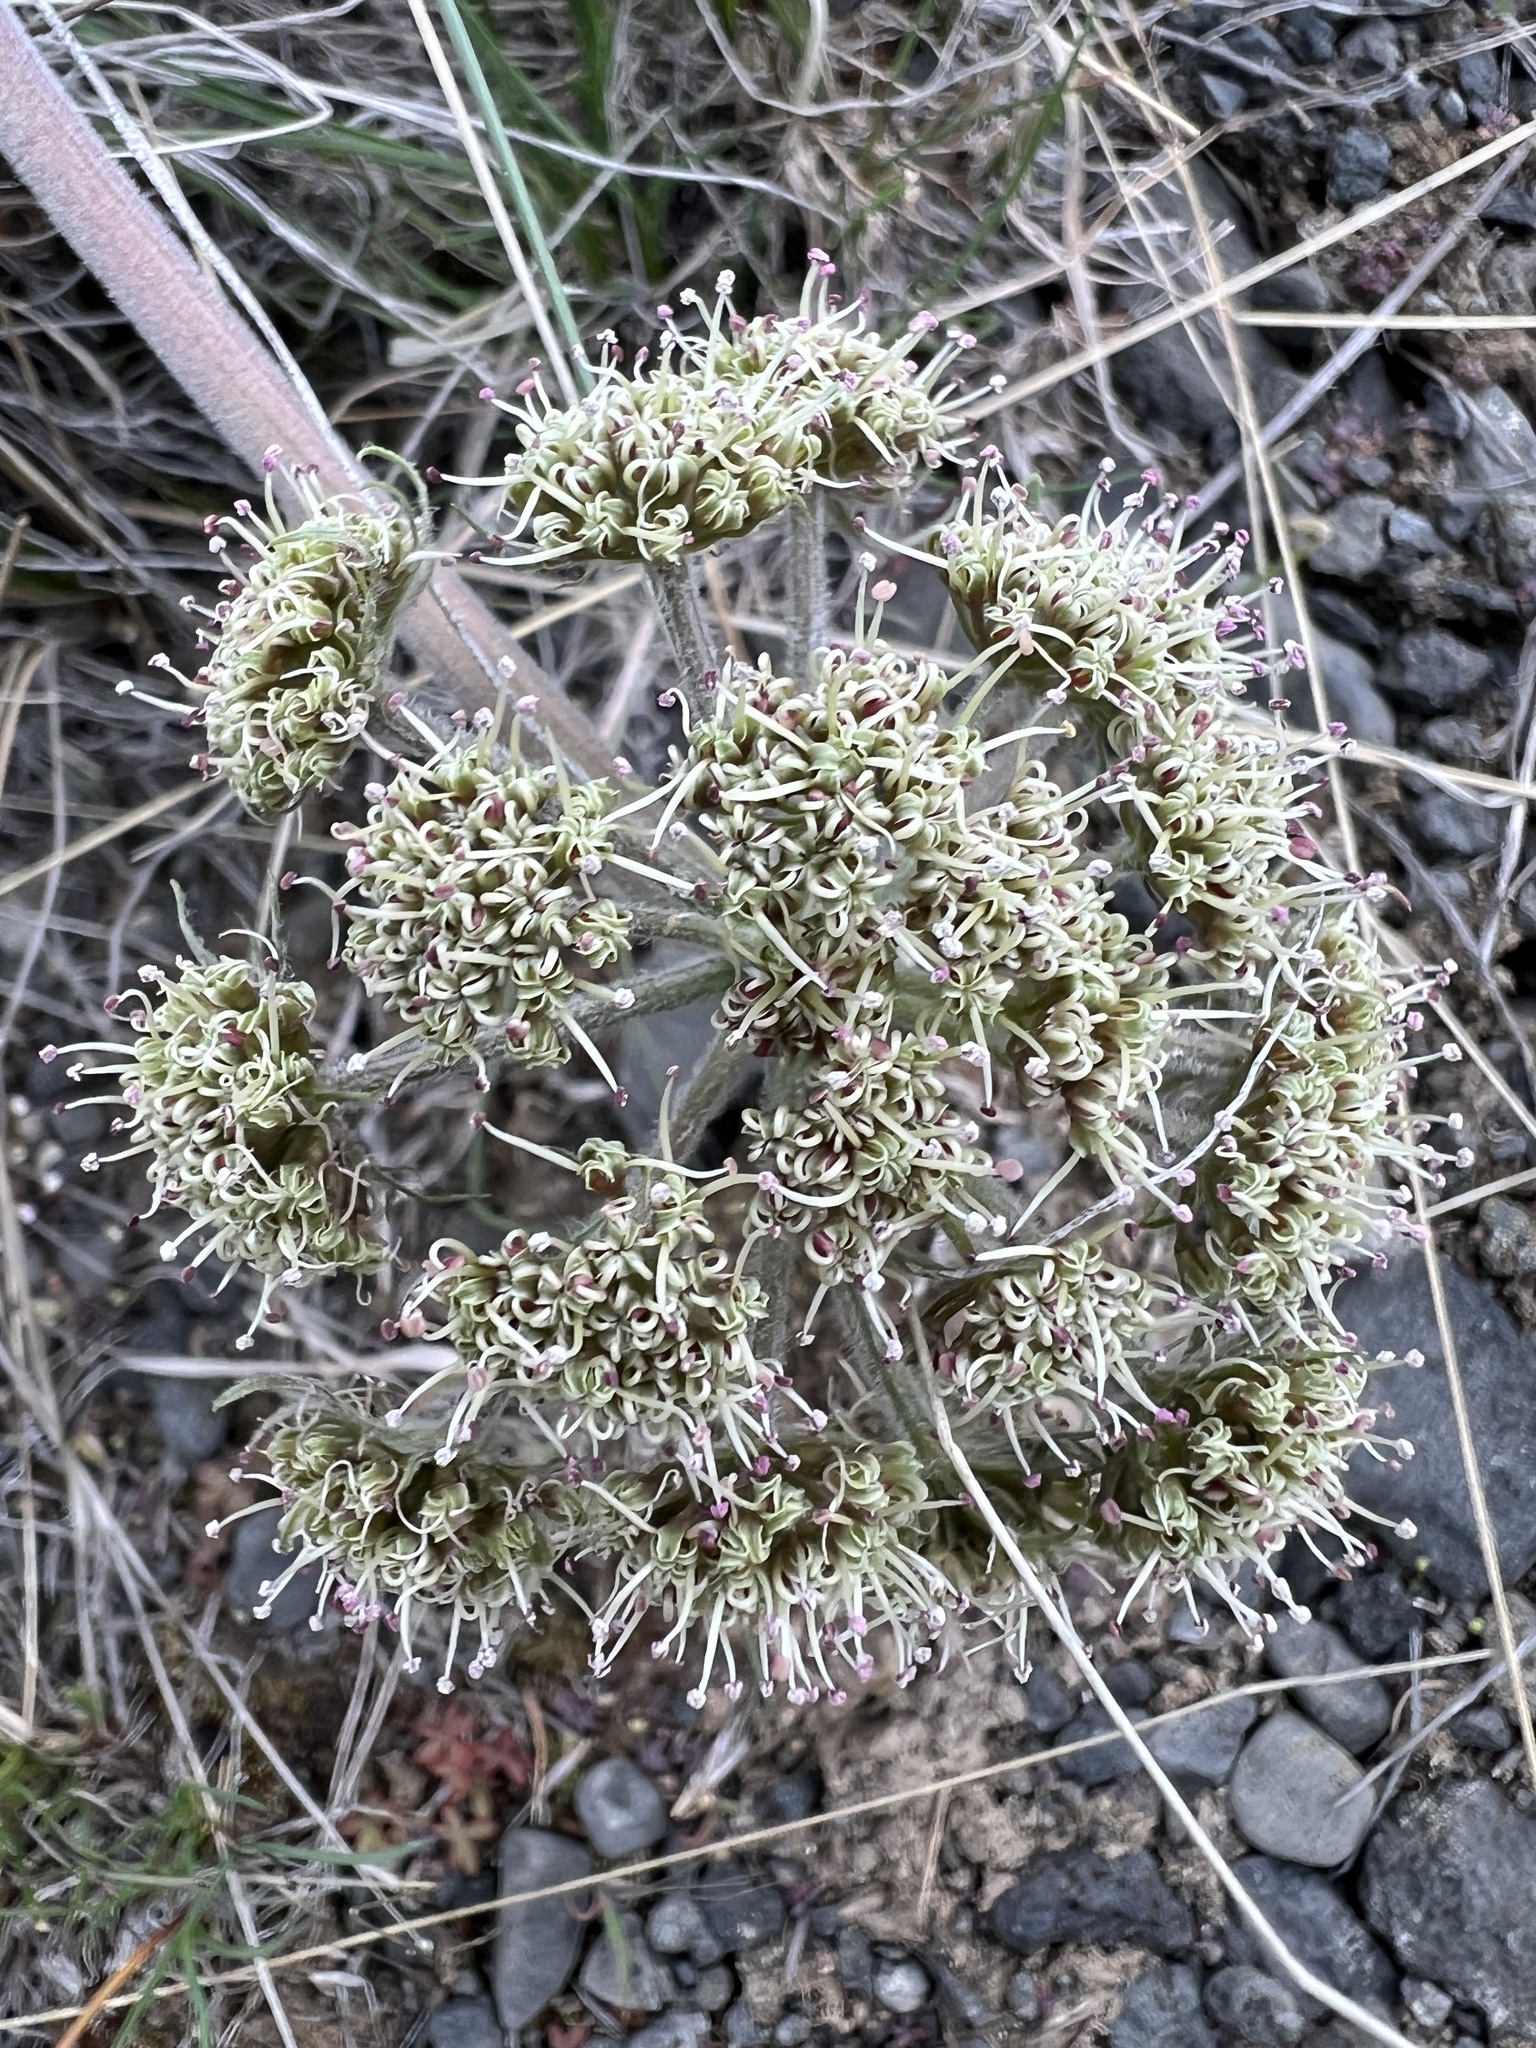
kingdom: Plantae
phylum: Tracheophyta
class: Magnoliopsida
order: Apiales
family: Apiaceae
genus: Lomatium
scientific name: Lomatium macrocarpum
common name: Big-seed biscuitroot
